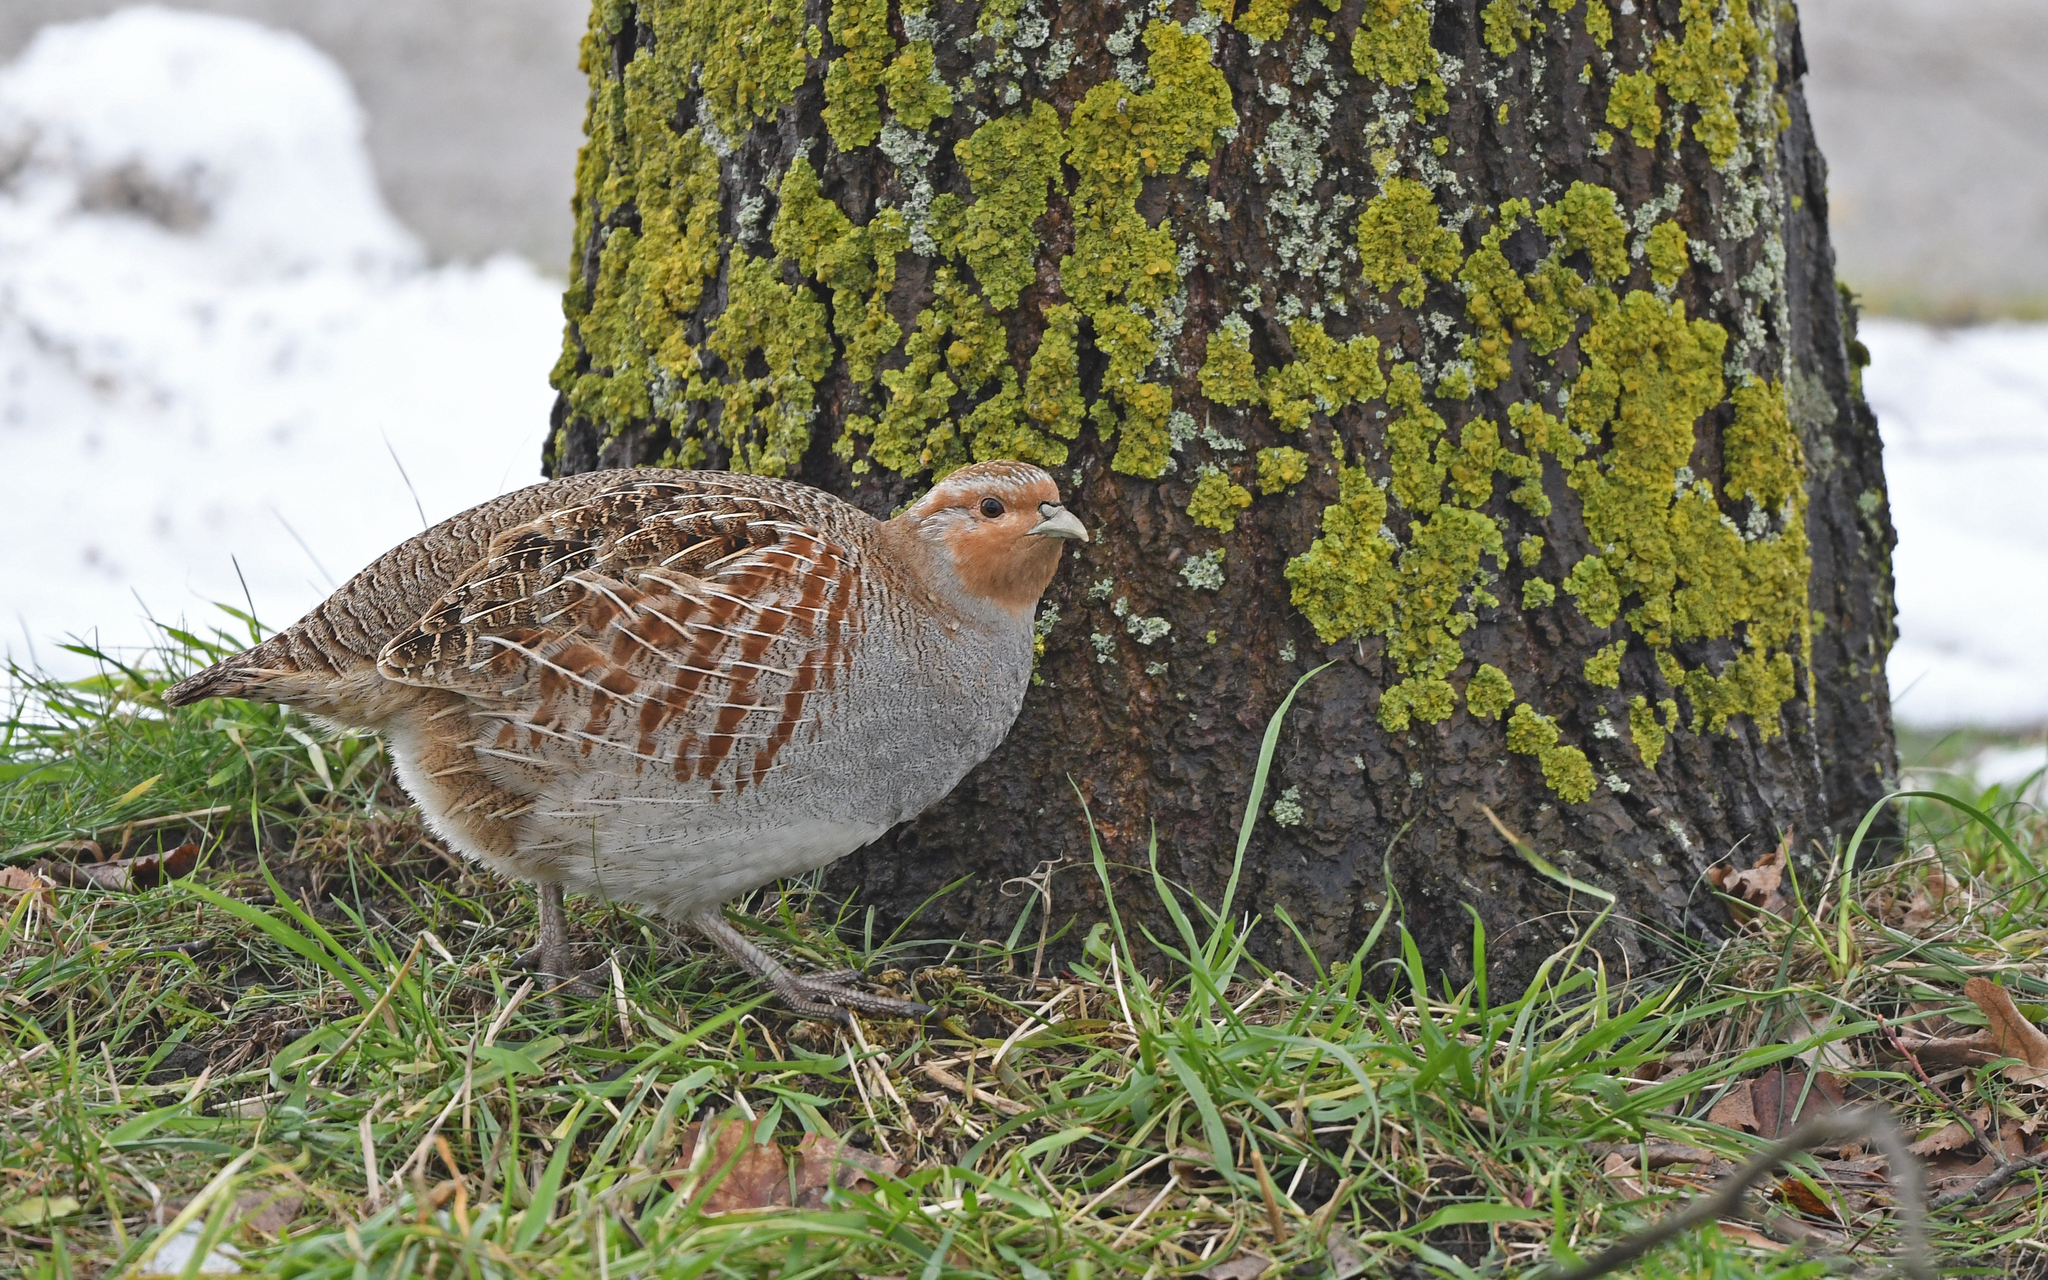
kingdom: Animalia
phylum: Chordata
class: Aves
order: Galliformes
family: Phasianidae
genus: Perdix
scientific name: Perdix perdix
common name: Grey partridge
